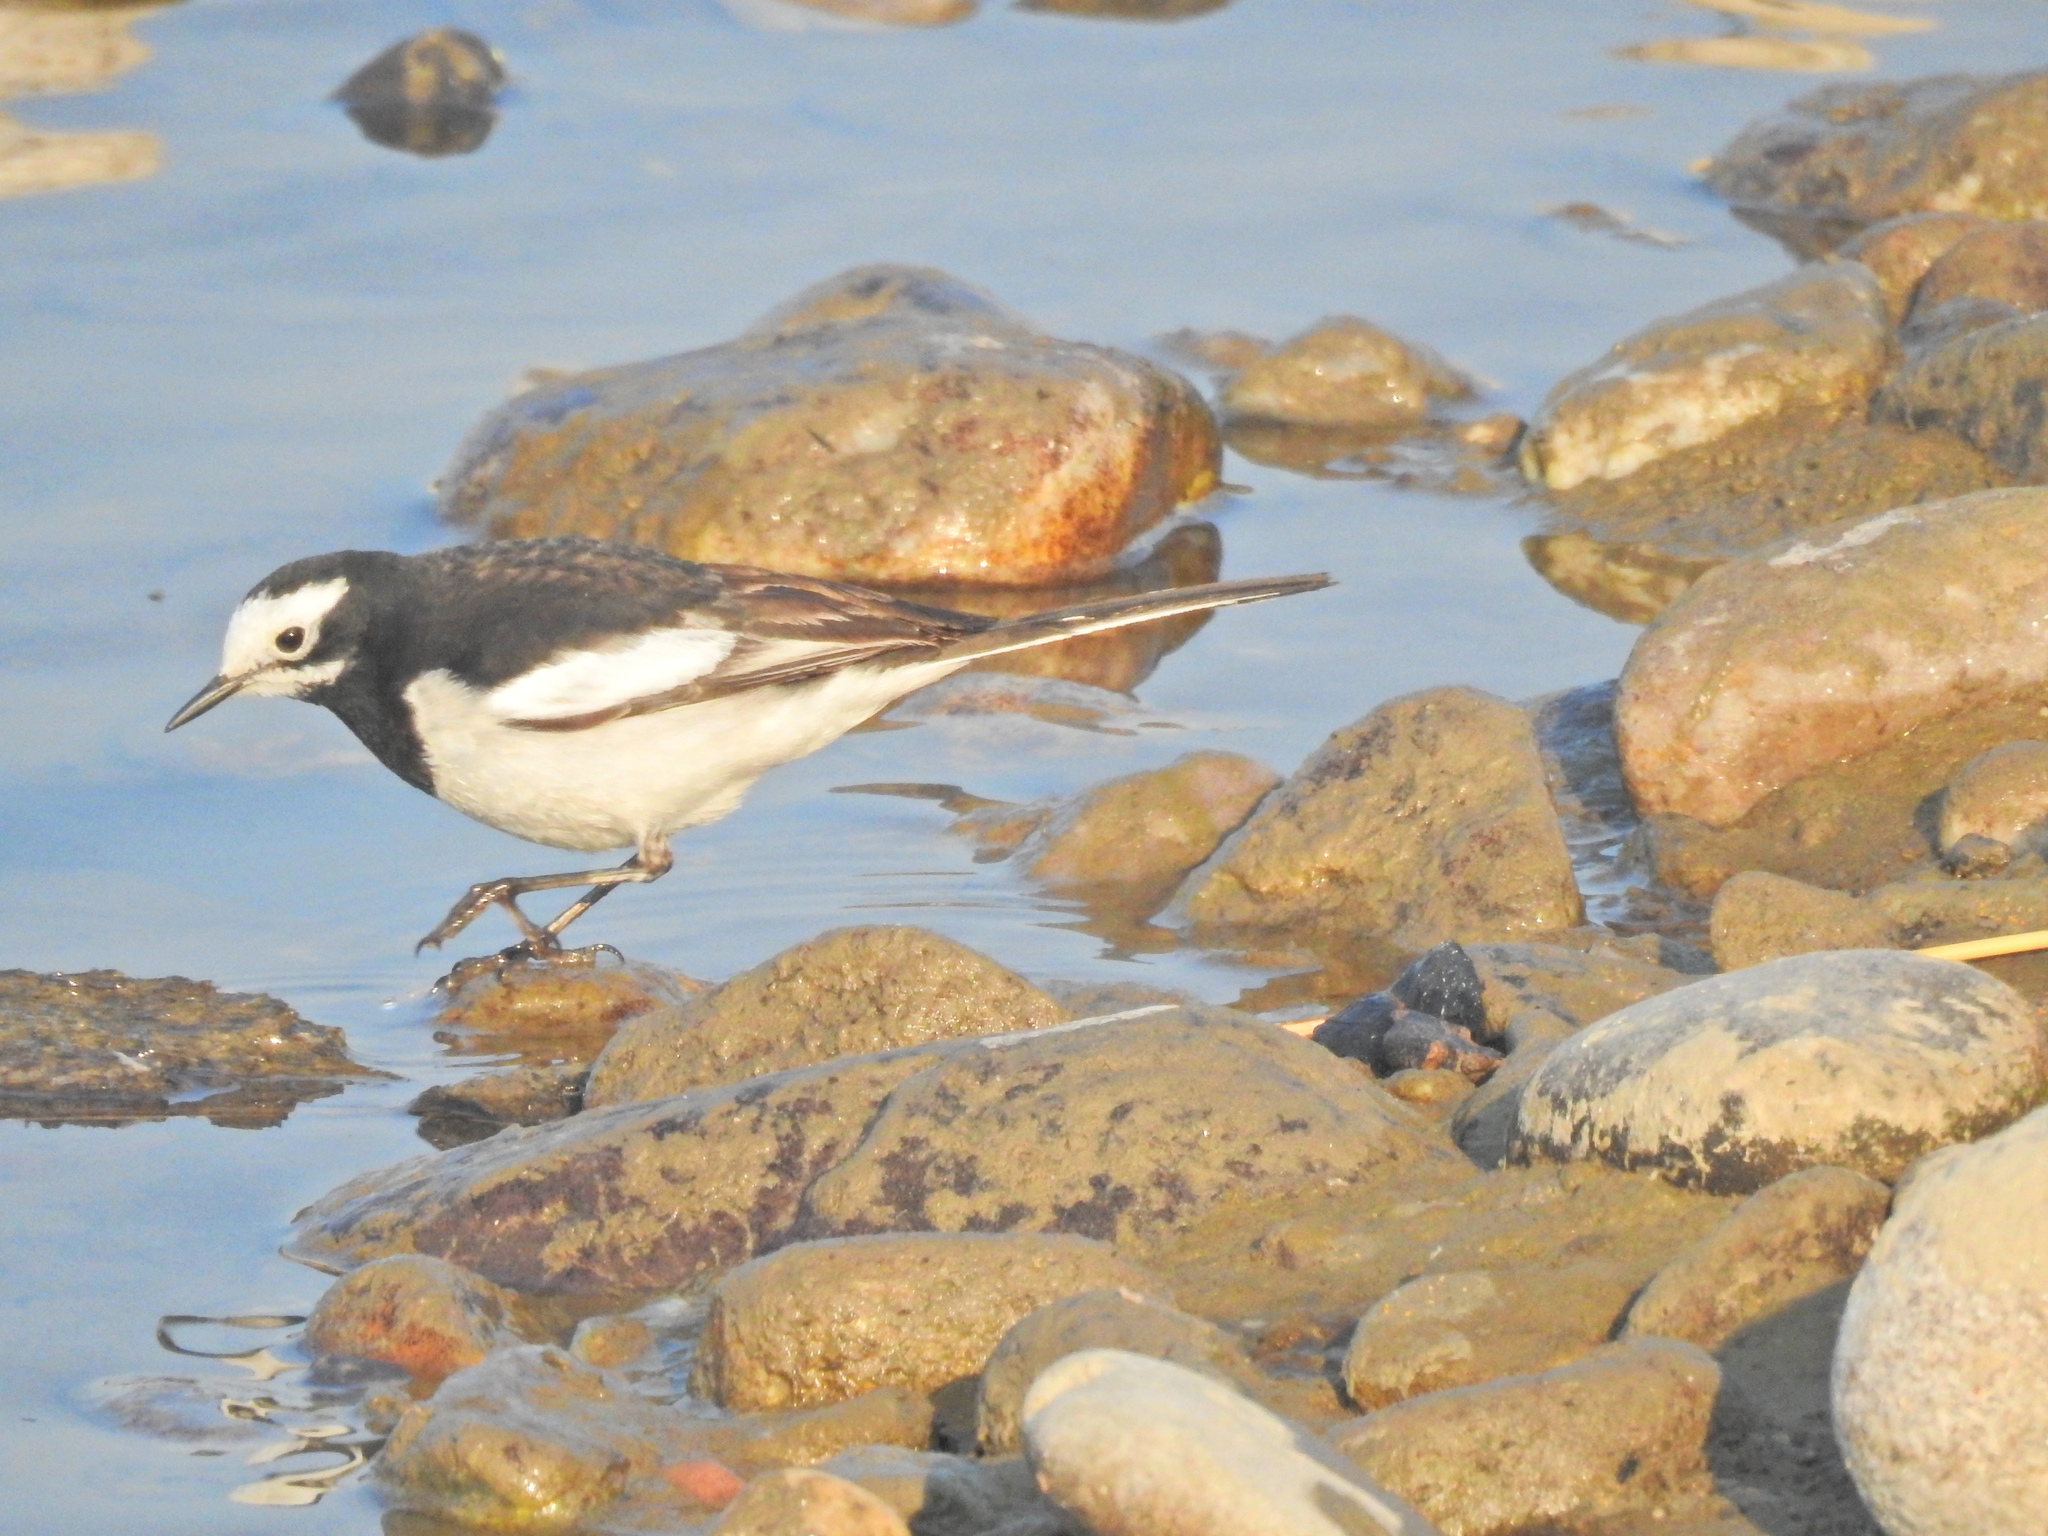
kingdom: Animalia
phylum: Chordata
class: Aves
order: Passeriformes
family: Motacillidae
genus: Motacilla
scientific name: Motacilla alba
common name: White wagtail
